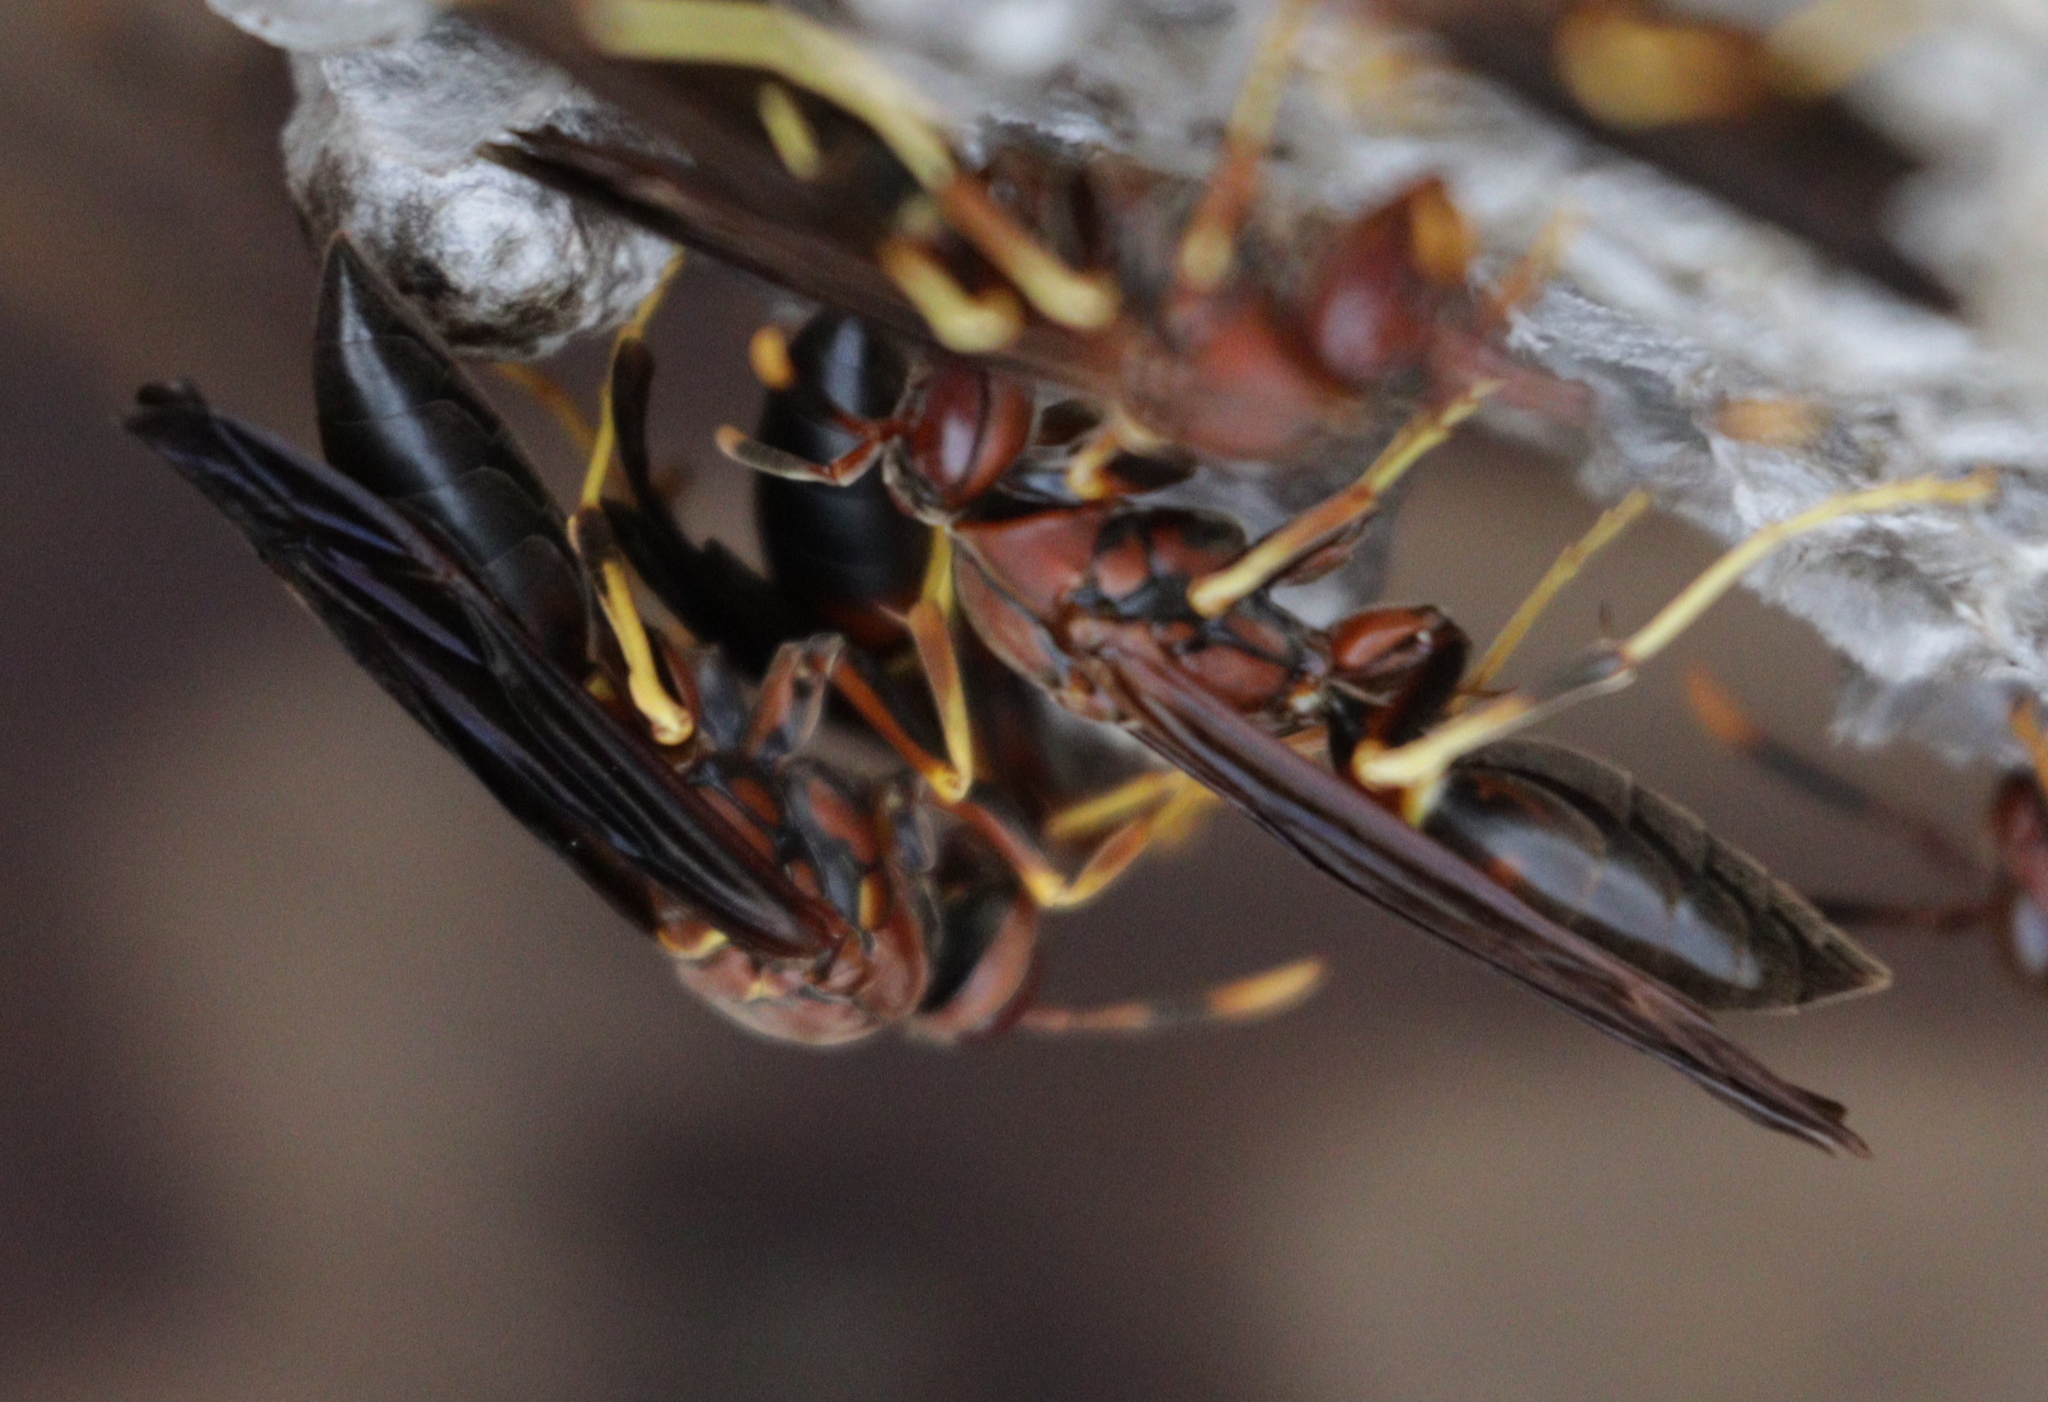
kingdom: Animalia
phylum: Arthropoda
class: Insecta
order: Hymenoptera
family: Eumenidae
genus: Polistes
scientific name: Polistes annularis
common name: Ringed paper wasp
